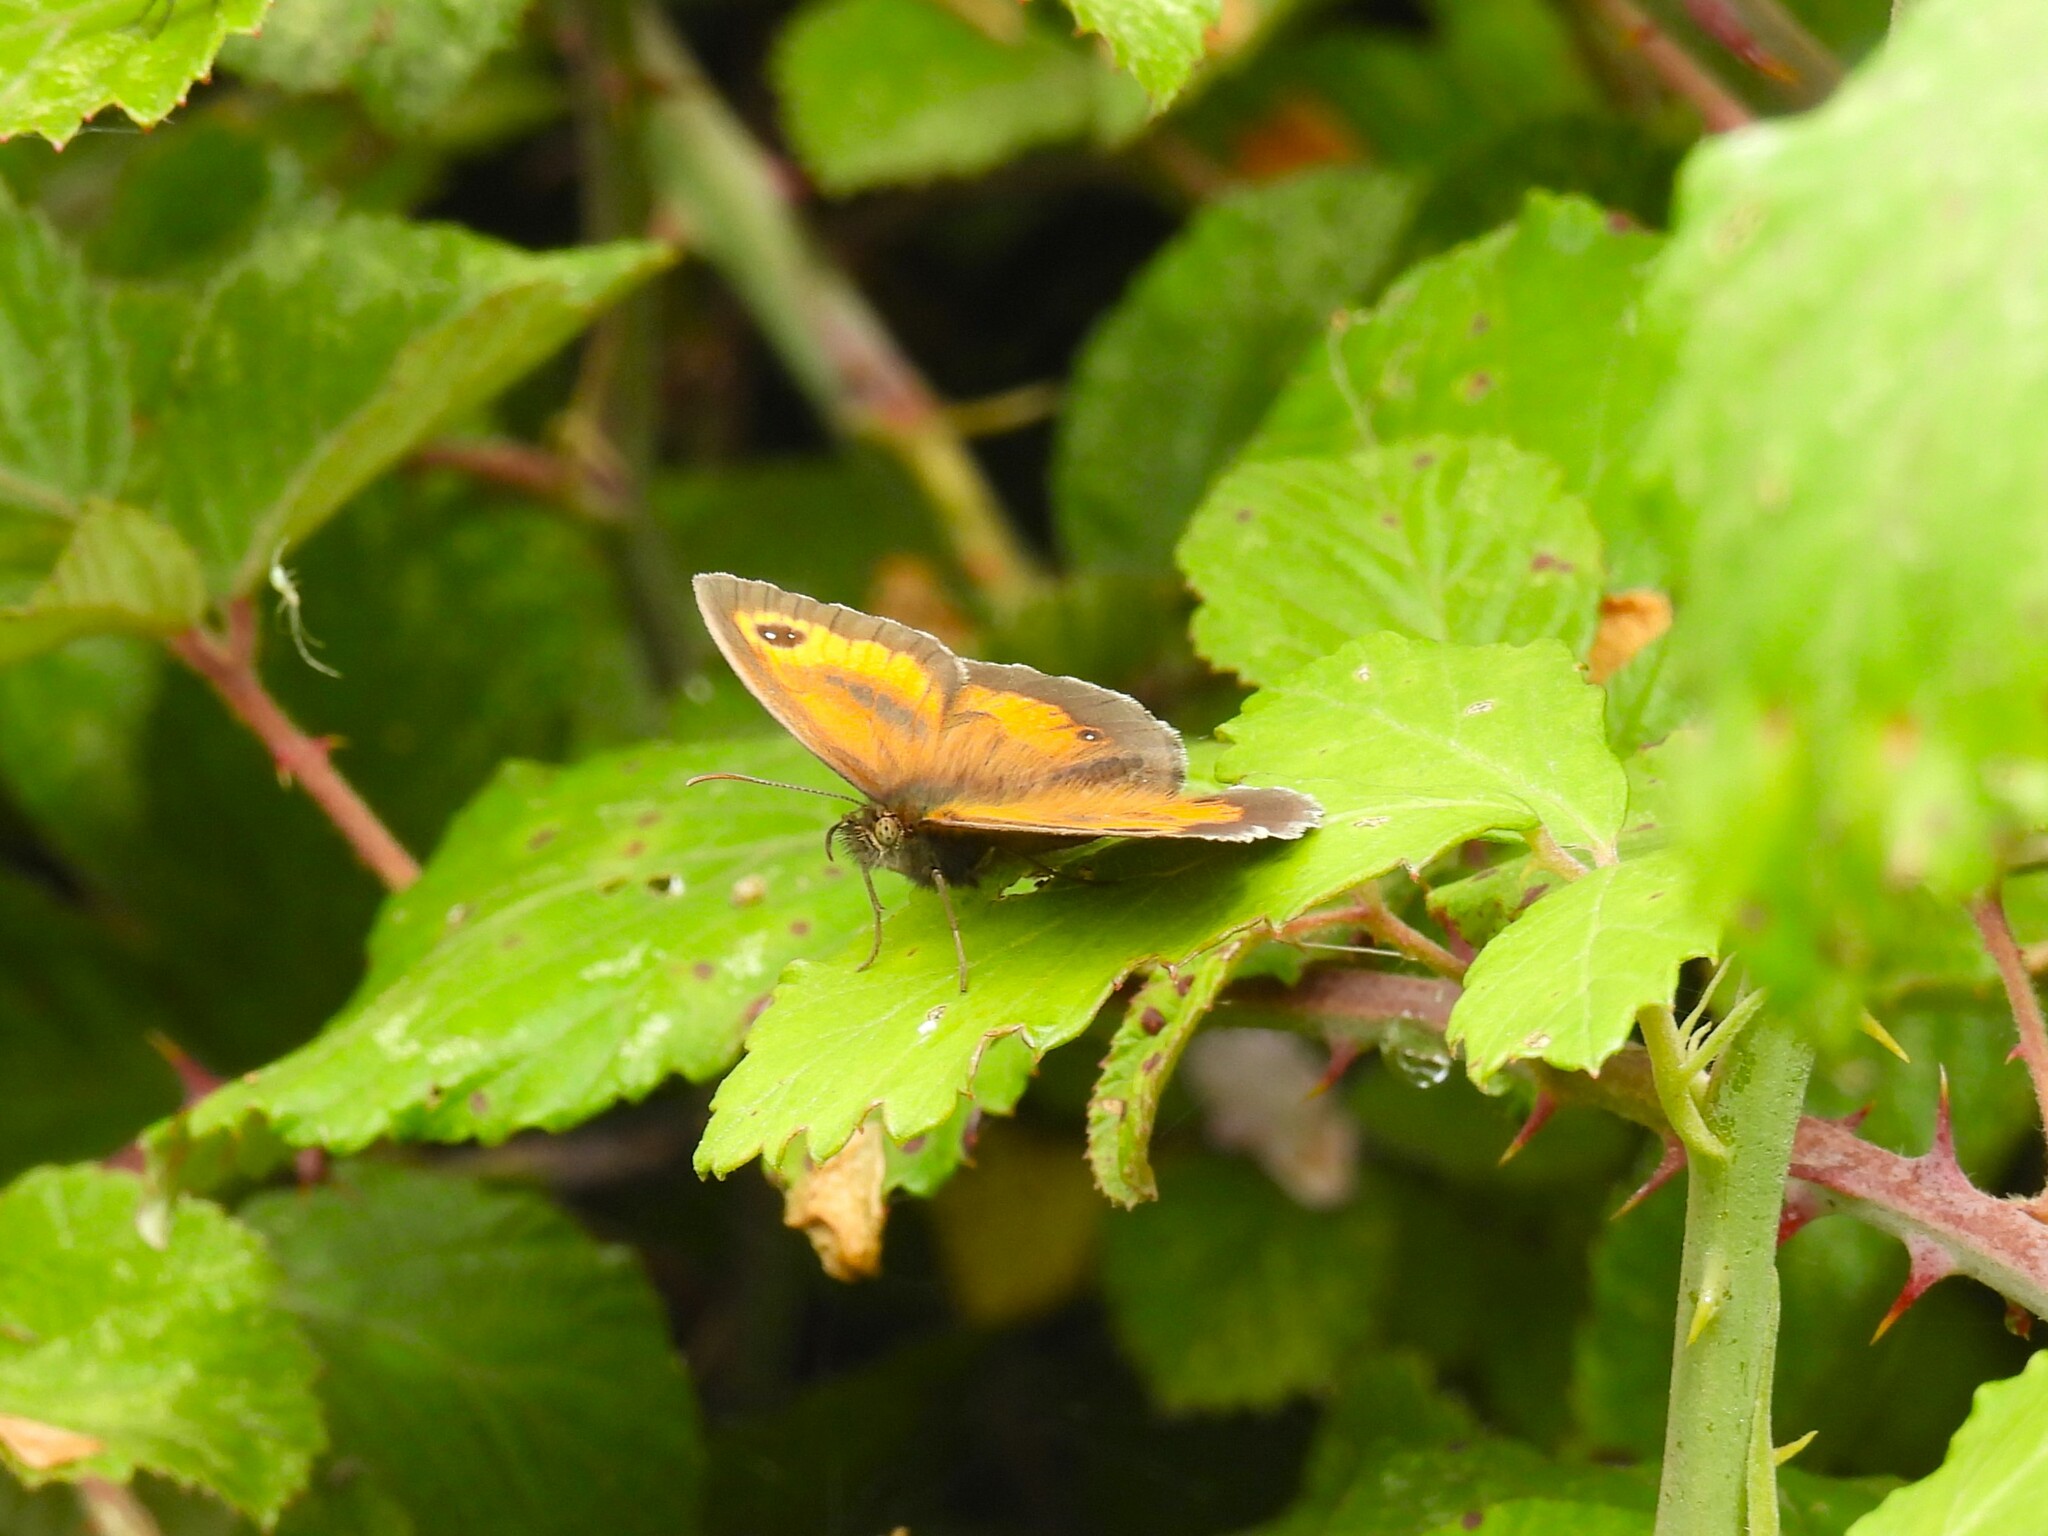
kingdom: Animalia
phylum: Arthropoda
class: Insecta
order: Lepidoptera
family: Nymphalidae
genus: Pyronia
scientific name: Pyronia tithonus
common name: Gatekeeper
